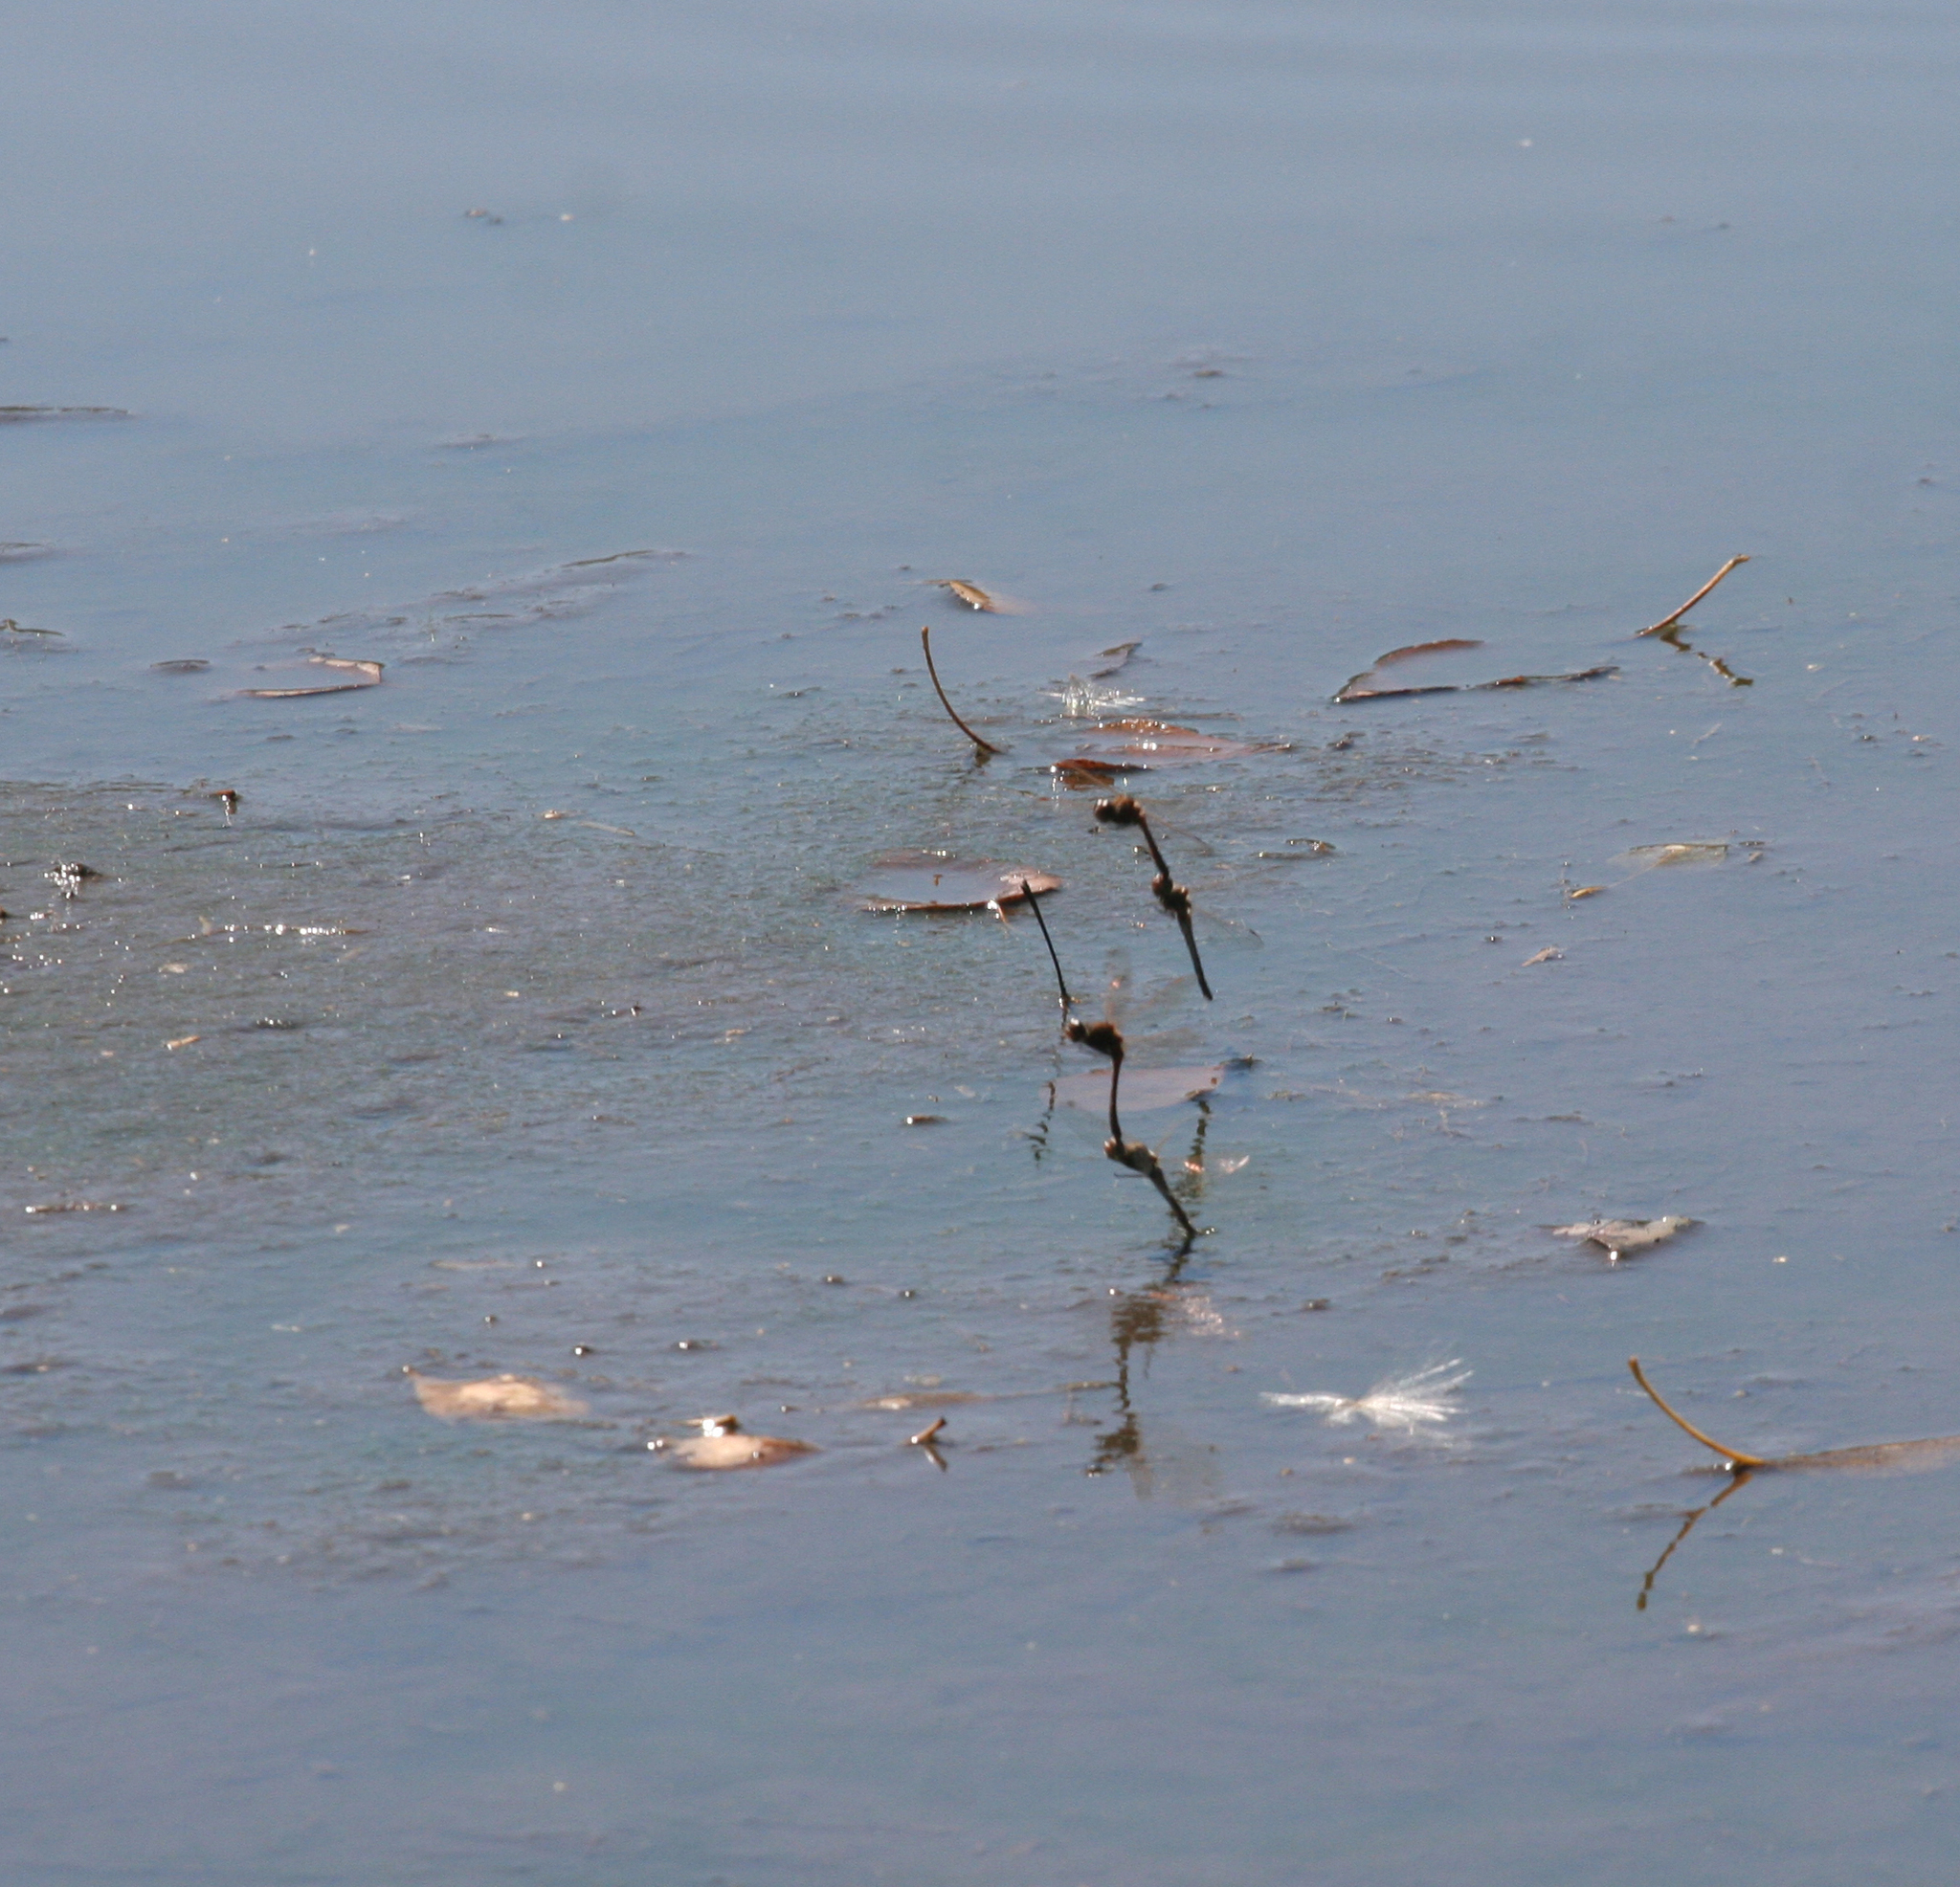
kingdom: Animalia
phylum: Arthropoda
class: Insecta
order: Odonata
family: Libellulidae
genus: Sympetrum
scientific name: Sympetrum vulgatum
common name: Vagrant darter
